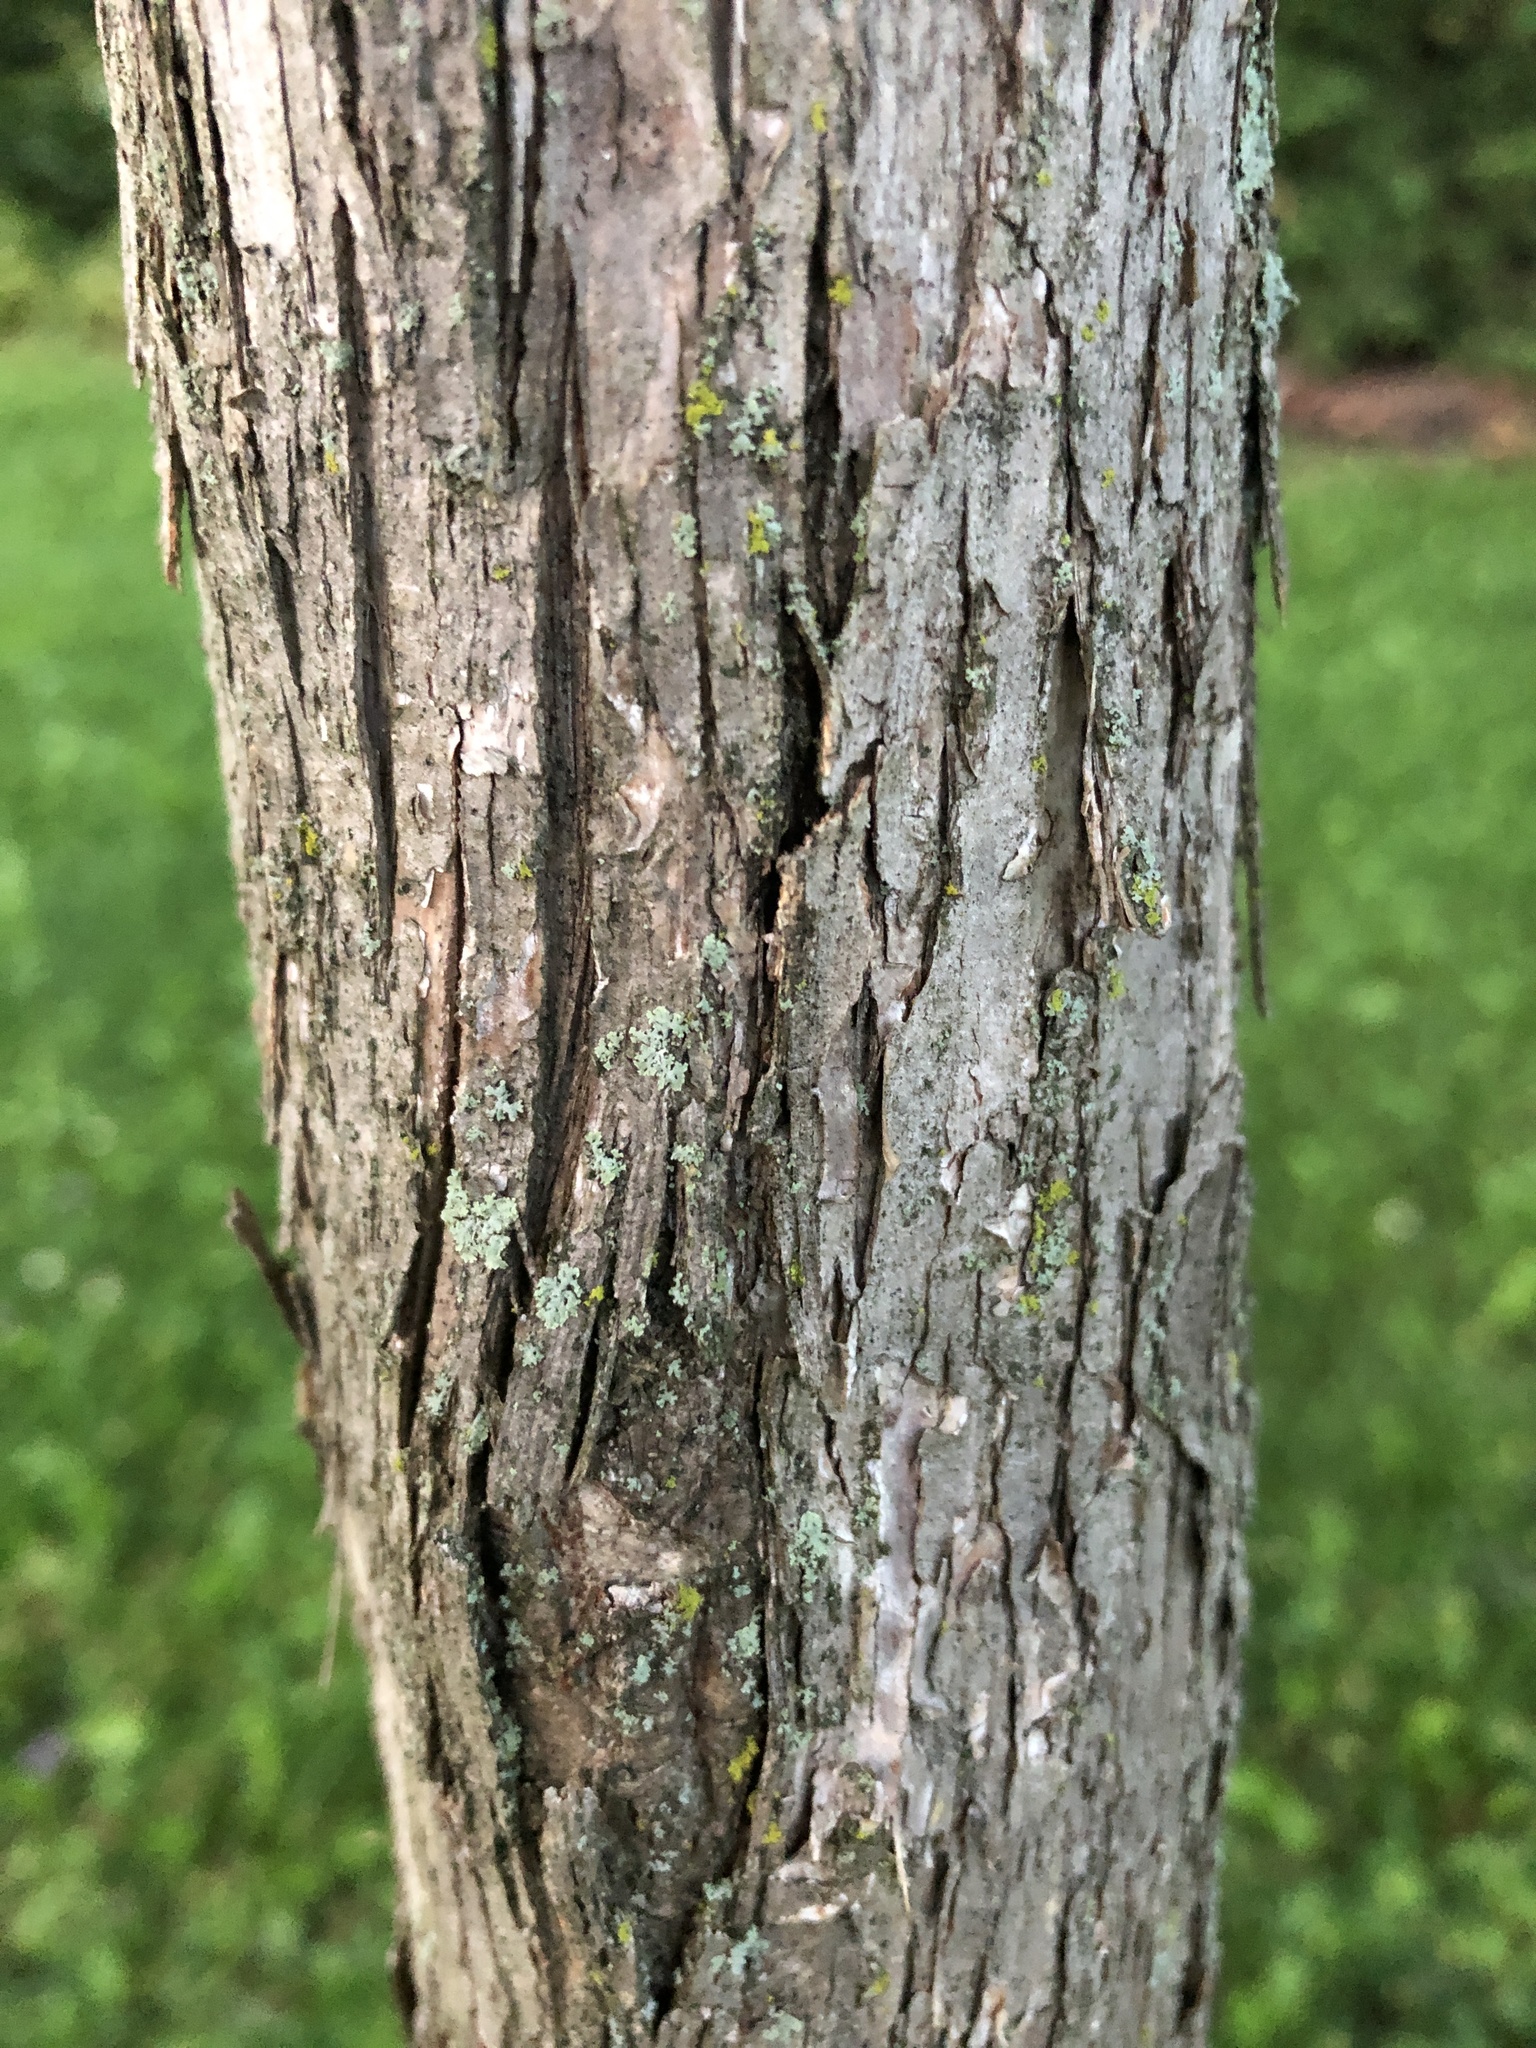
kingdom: Plantae
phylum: Tracheophyta
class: Magnoliopsida
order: Fagales
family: Betulaceae
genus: Ostrya
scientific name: Ostrya virginiana
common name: Ironwood
